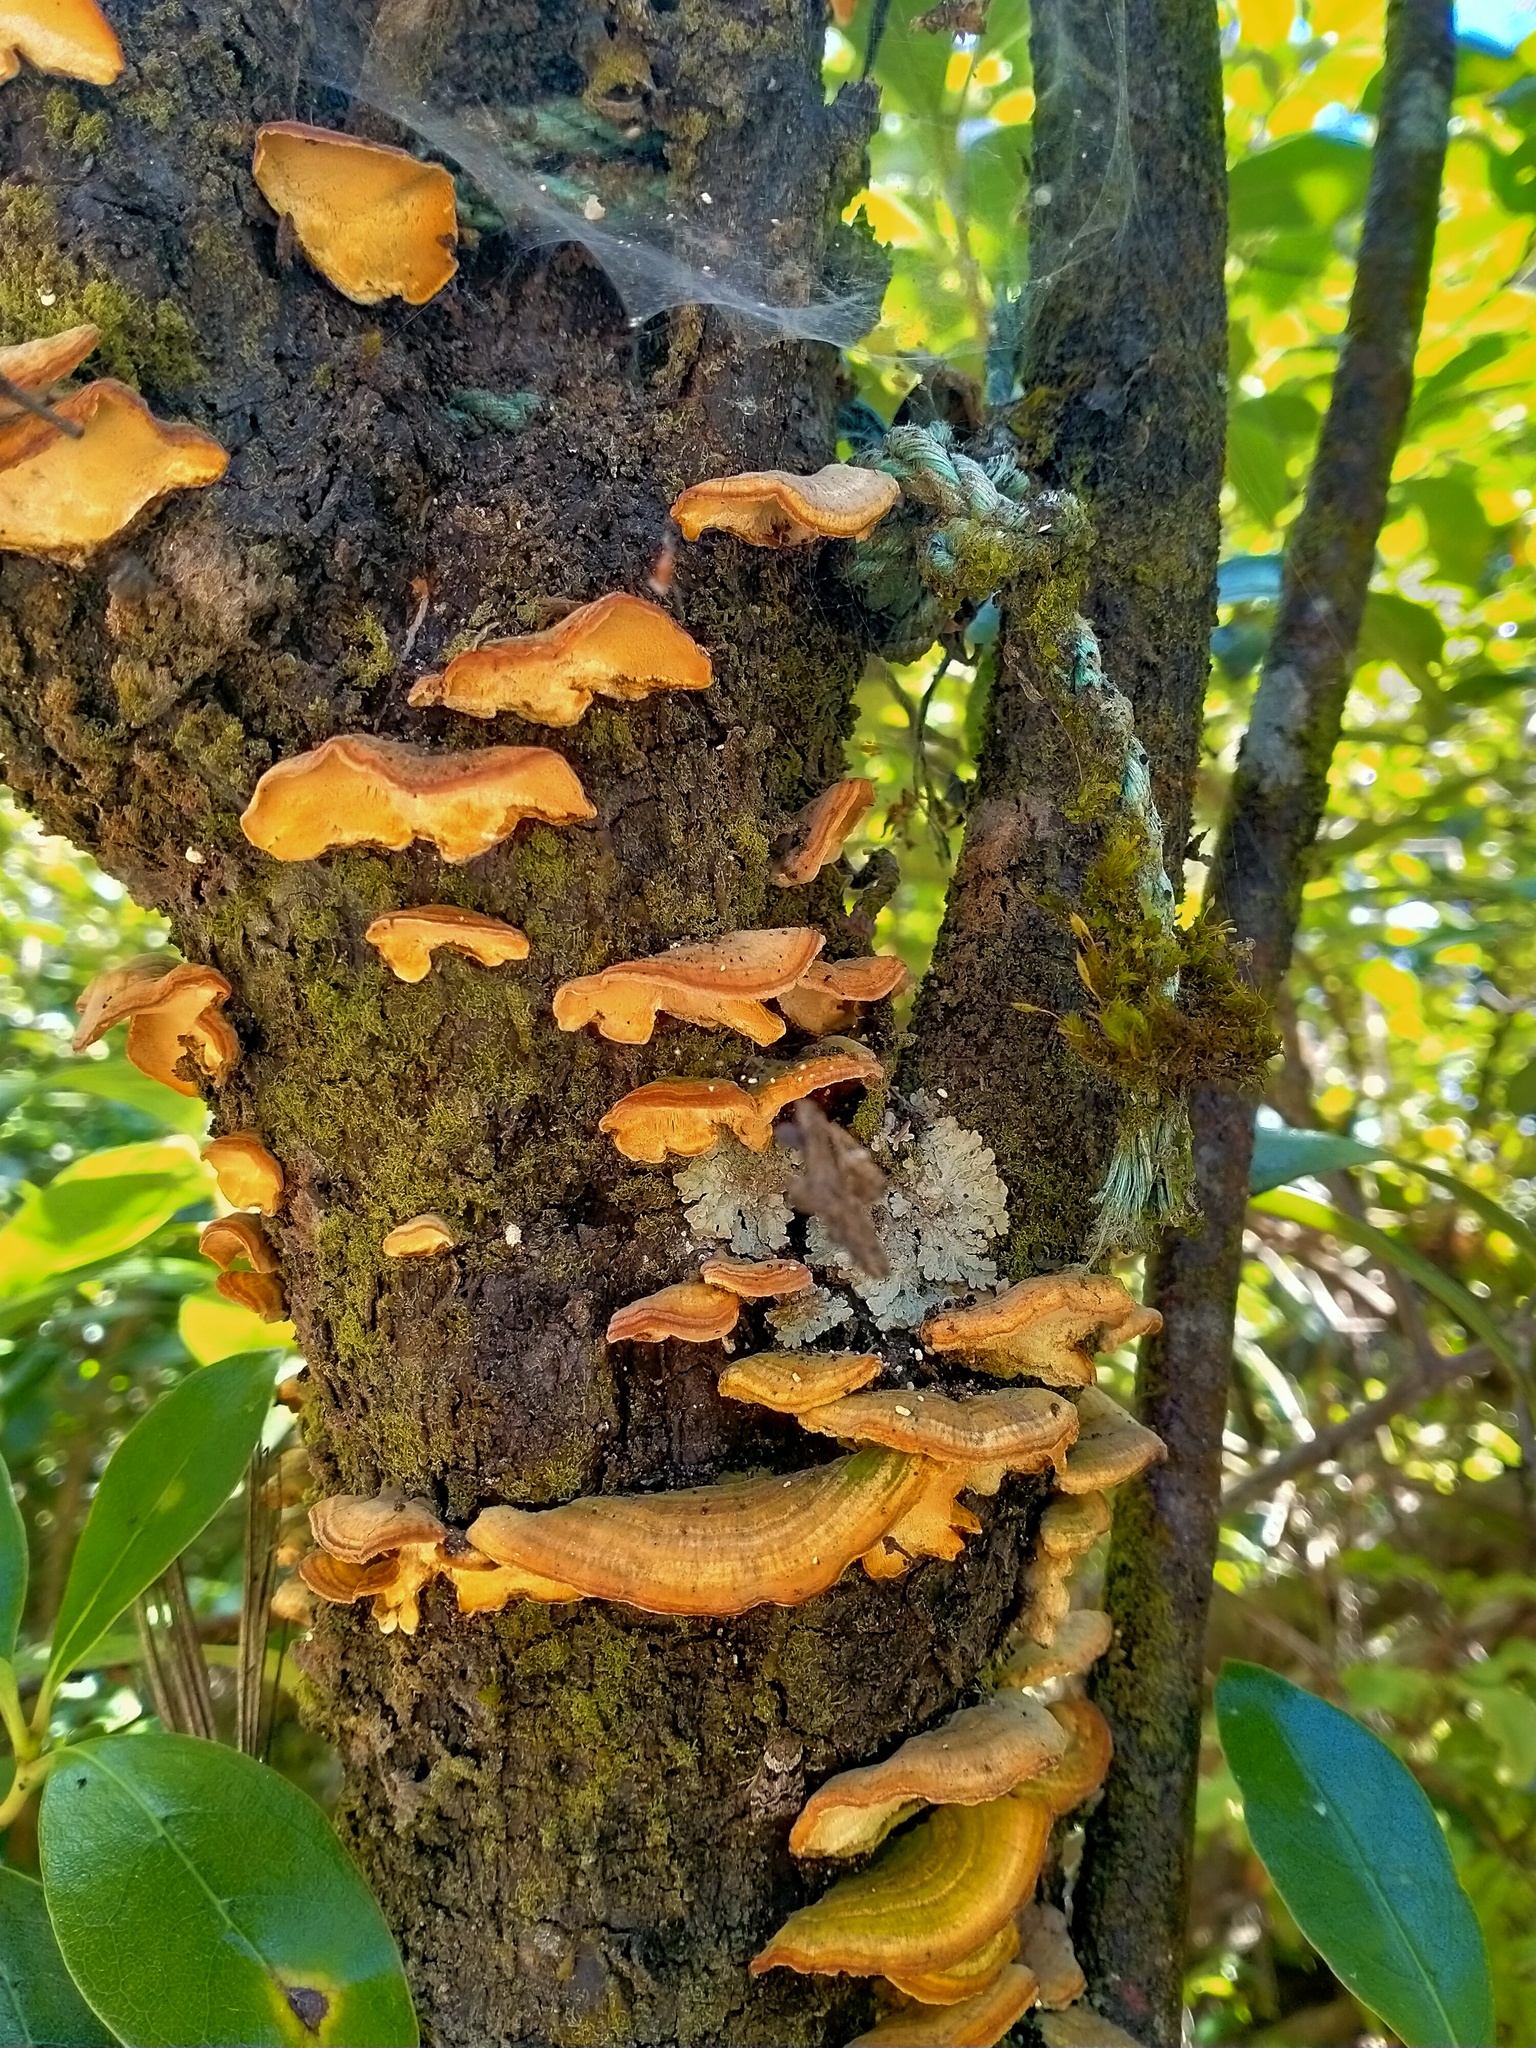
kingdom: Fungi
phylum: Basidiomycota
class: Agaricomycetes
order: Russulales
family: Stereaceae
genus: Stereum
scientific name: Stereum versicolor
